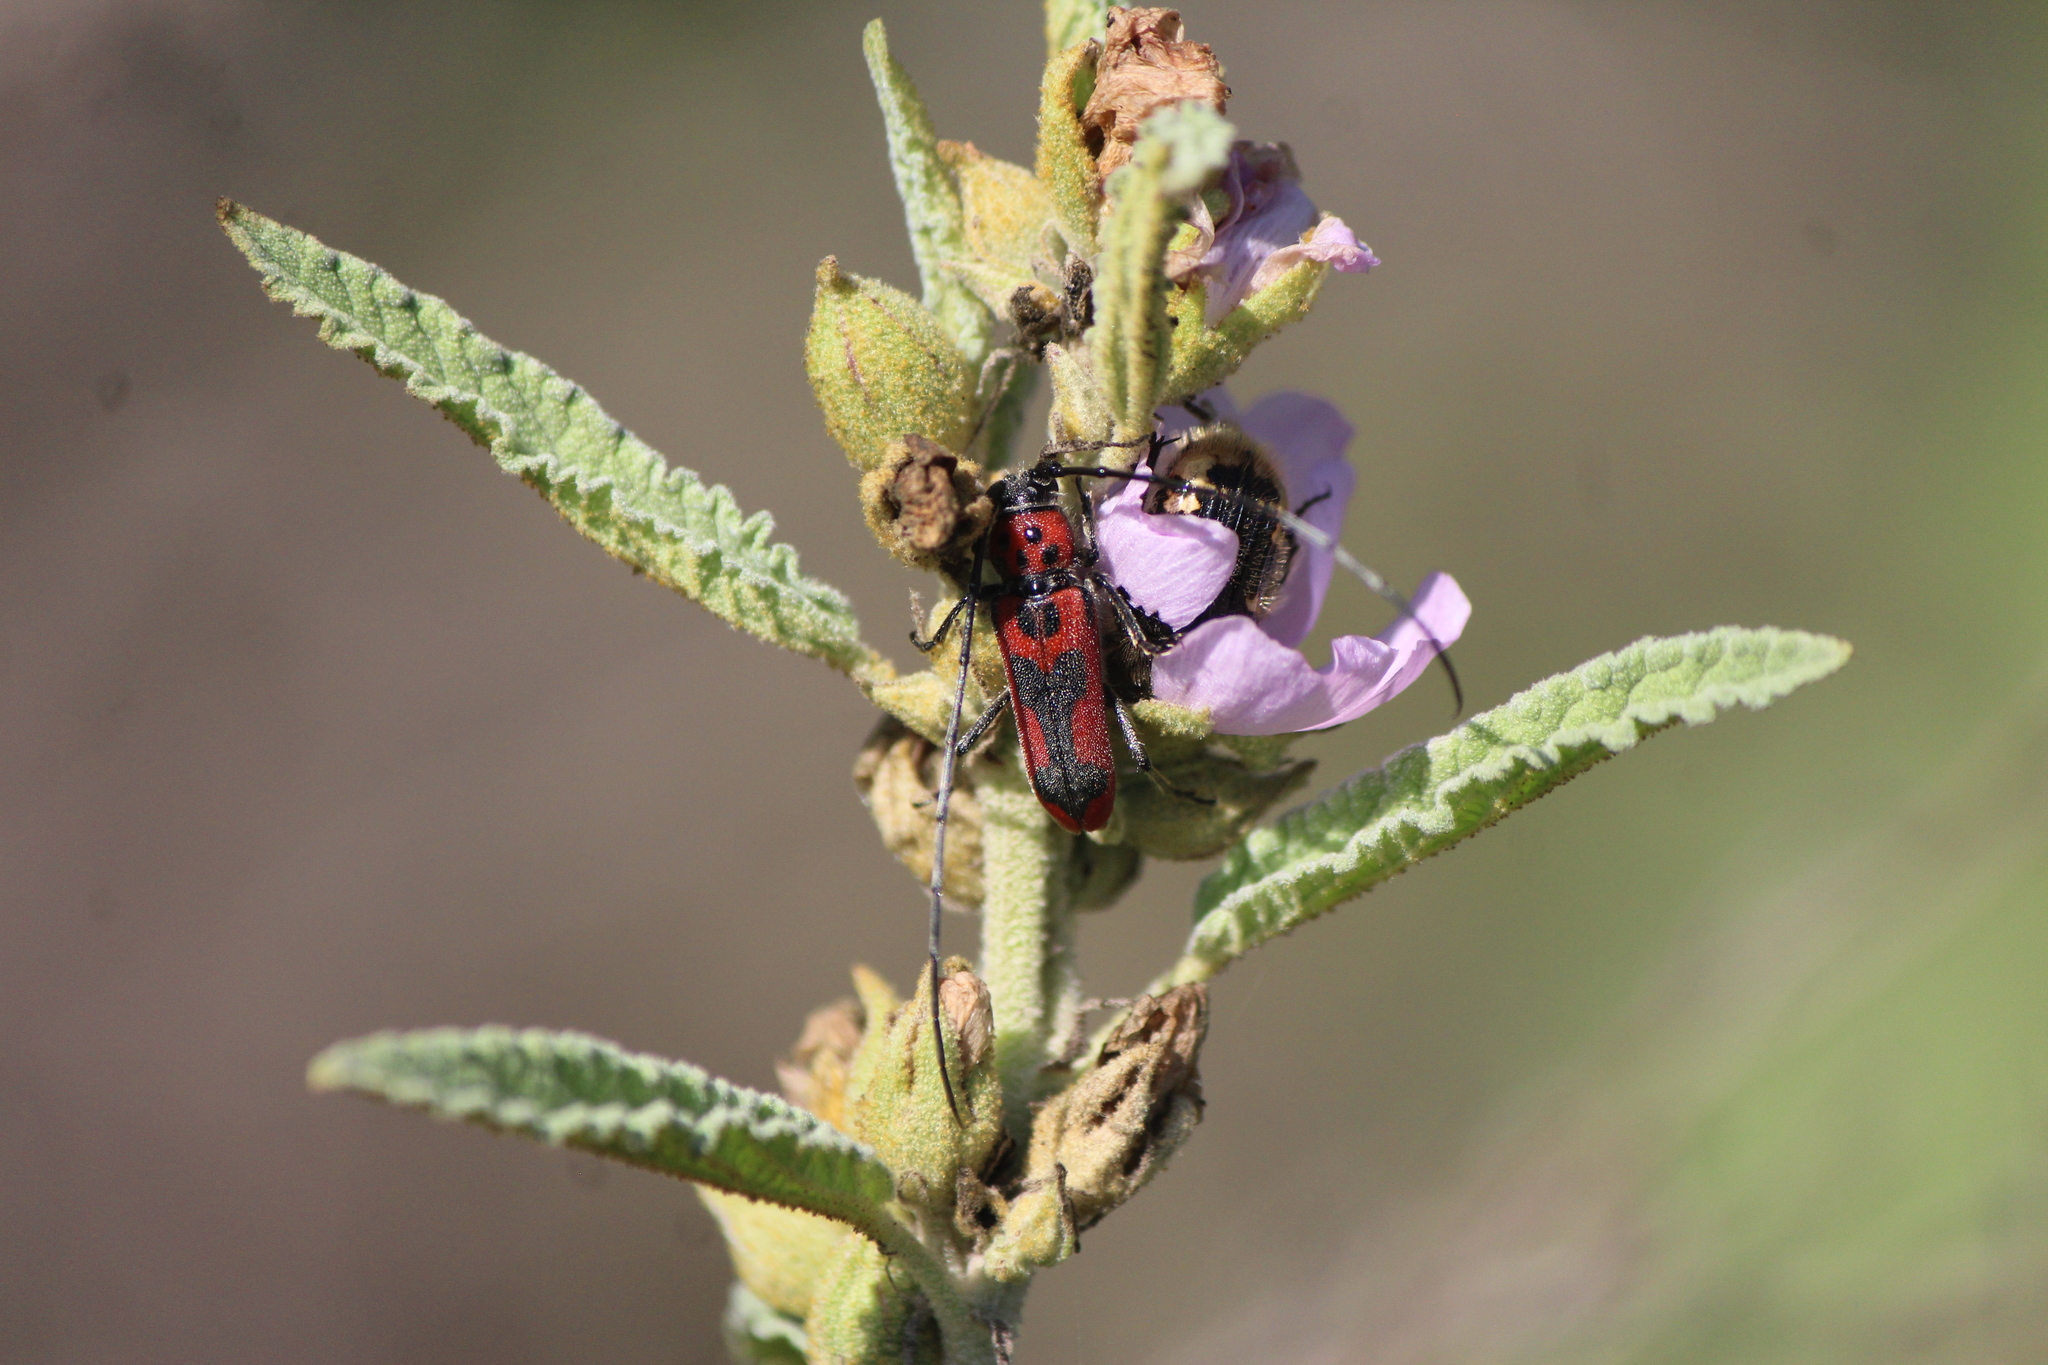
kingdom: Animalia
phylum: Arthropoda
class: Insecta
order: Coleoptera
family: Cerambycidae
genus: Tylosis
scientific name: Tylosis maculatus
